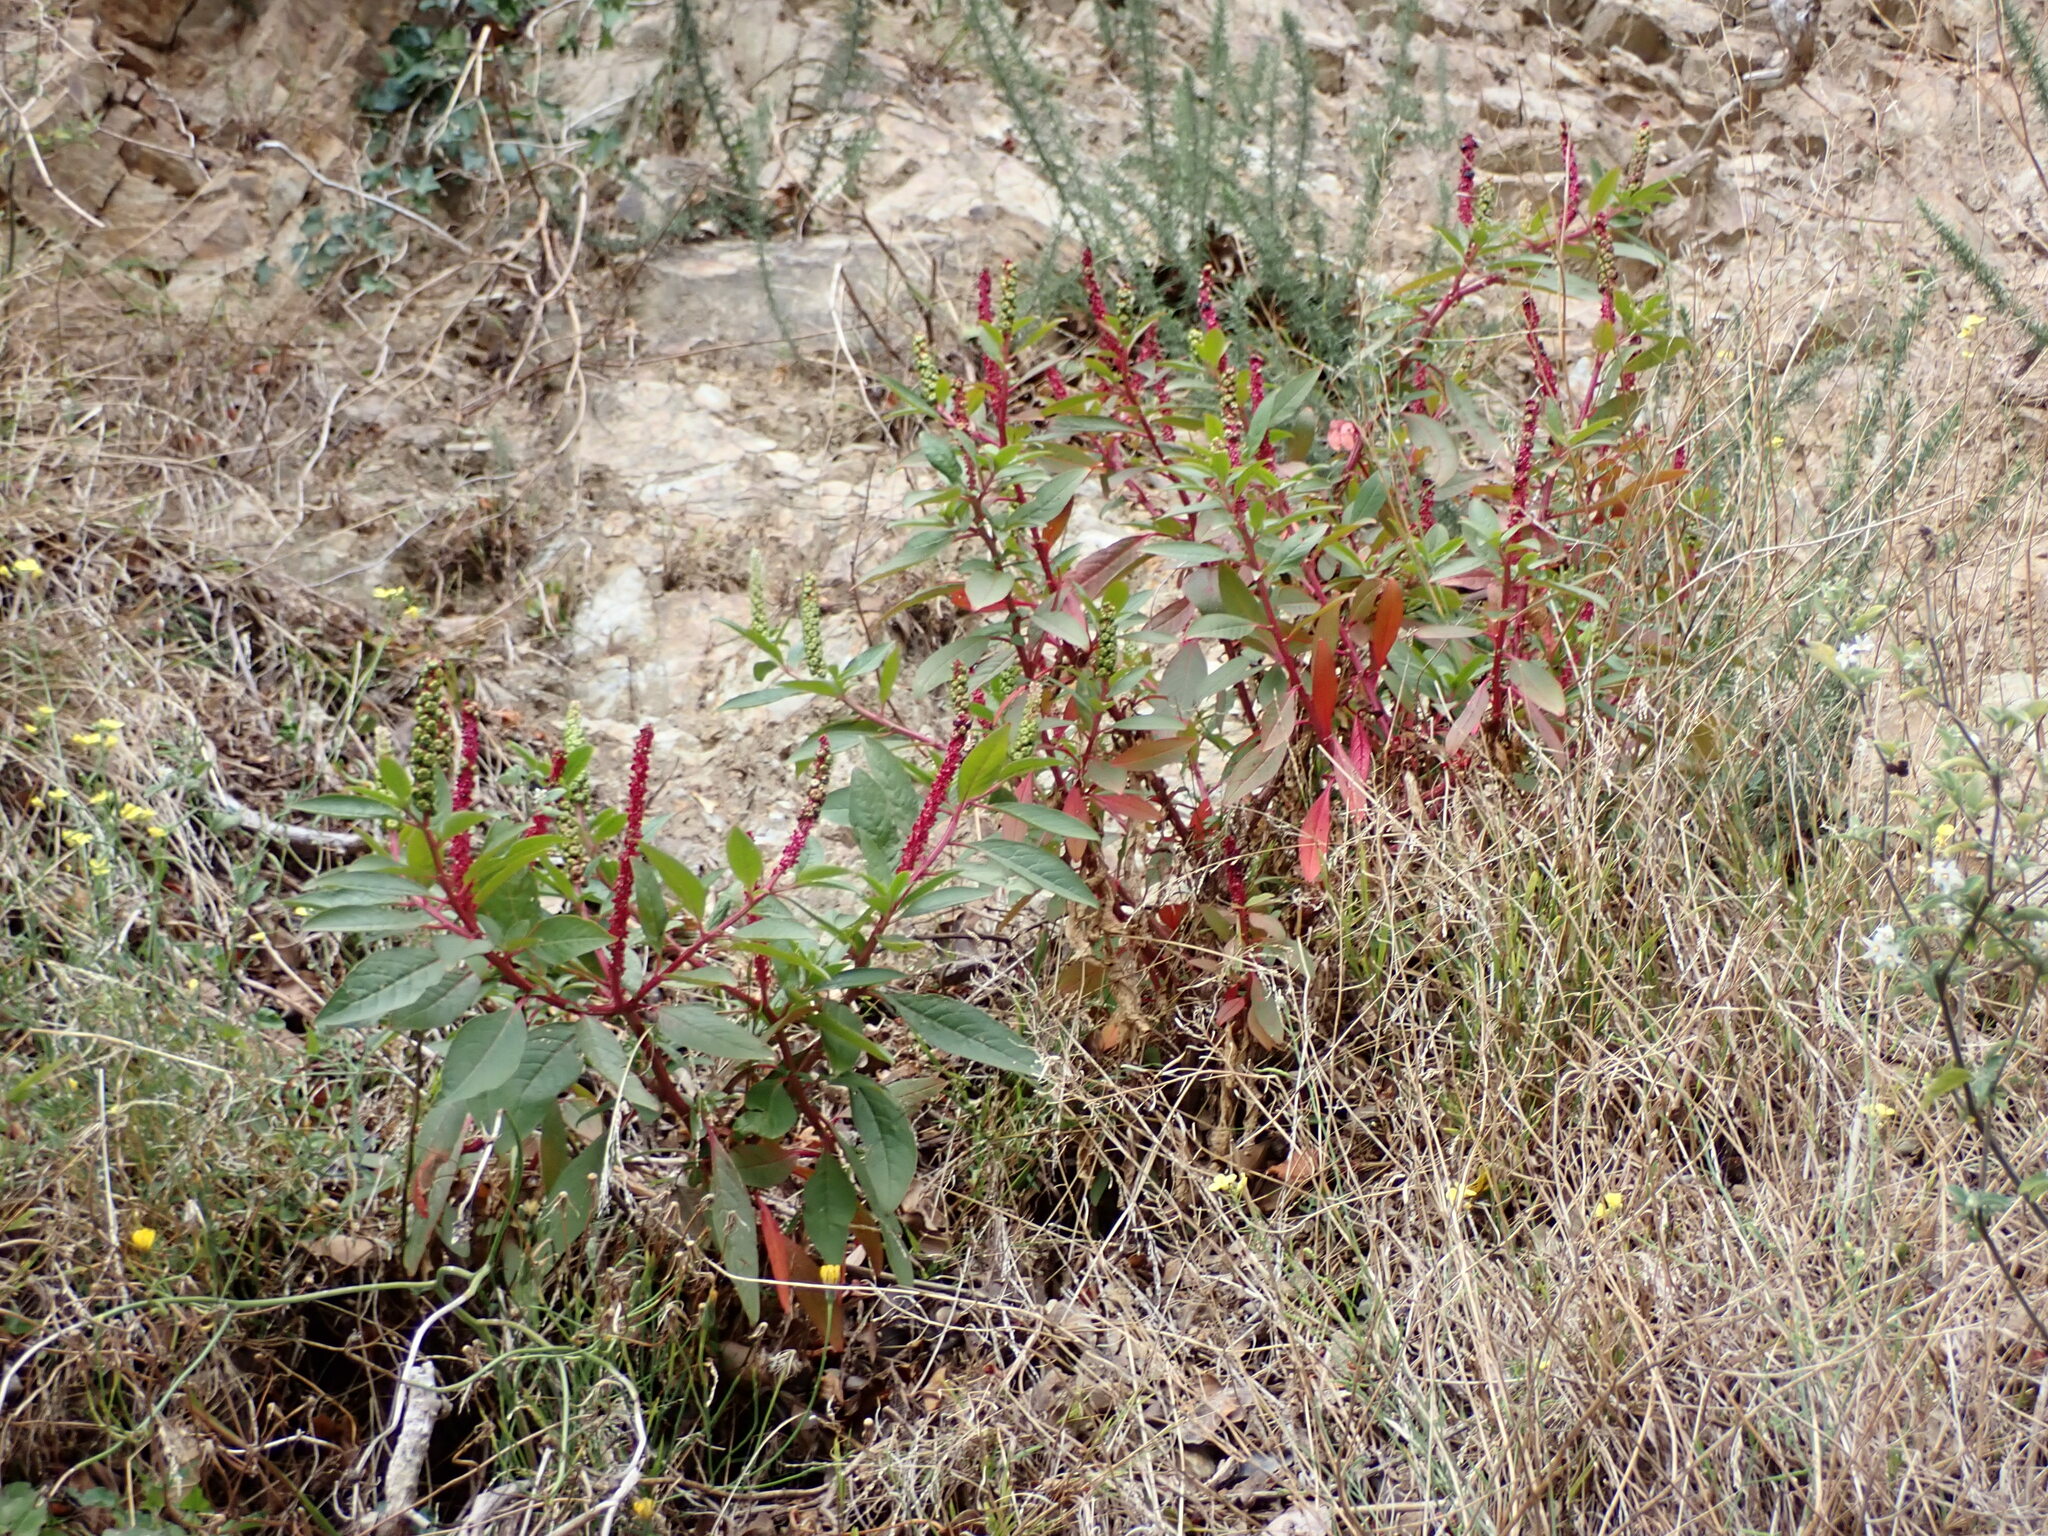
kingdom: Plantae
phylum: Tracheophyta
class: Magnoliopsida
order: Caryophyllales
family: Phytolaccaceae
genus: Phytolacca
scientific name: Phytolacca icosandra
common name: Button pokeweed
